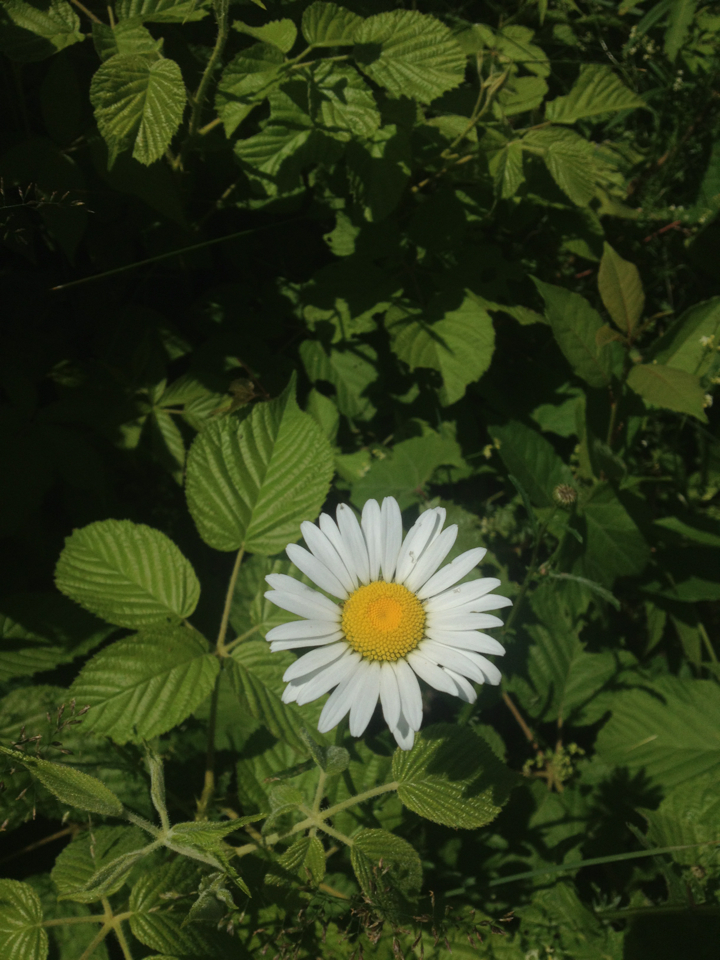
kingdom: Plantae
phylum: Tracheophyta
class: Magnoliopsida
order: Asterales
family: Asteraceae
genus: Leucanthemum
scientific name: Leucanthemum vulgare
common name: Oxeye daisy
